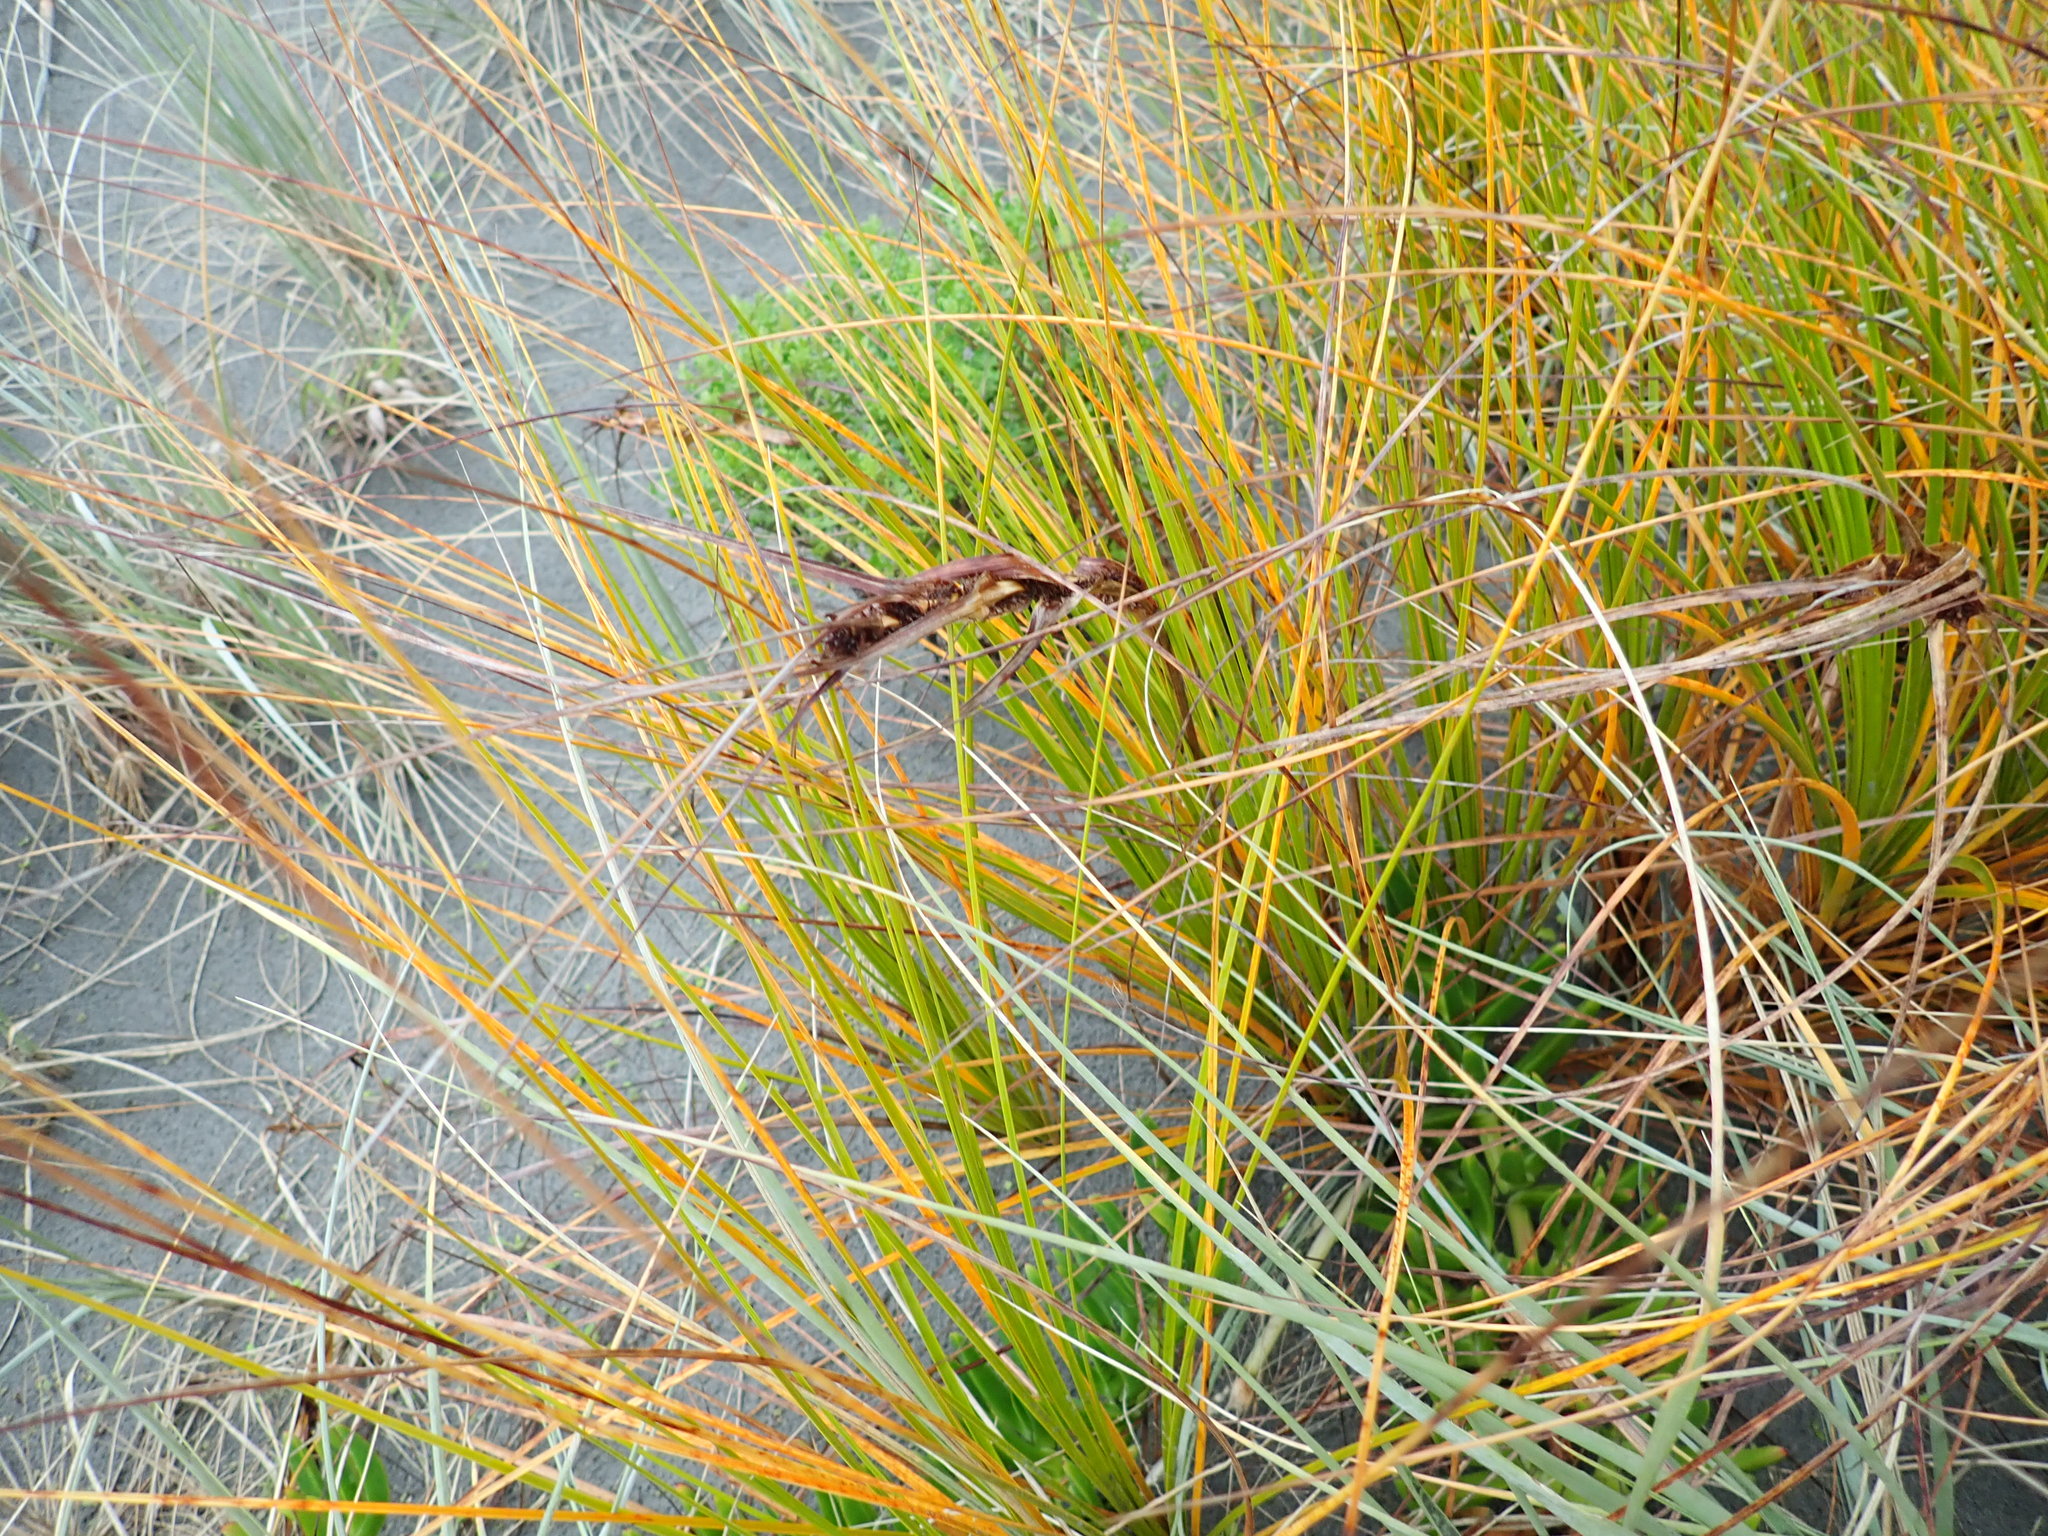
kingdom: Plantae
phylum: Tracheophyta
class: Liliopsida
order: Poales
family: Cyperaceae
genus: Ficinia
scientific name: Ficinia spiralis
